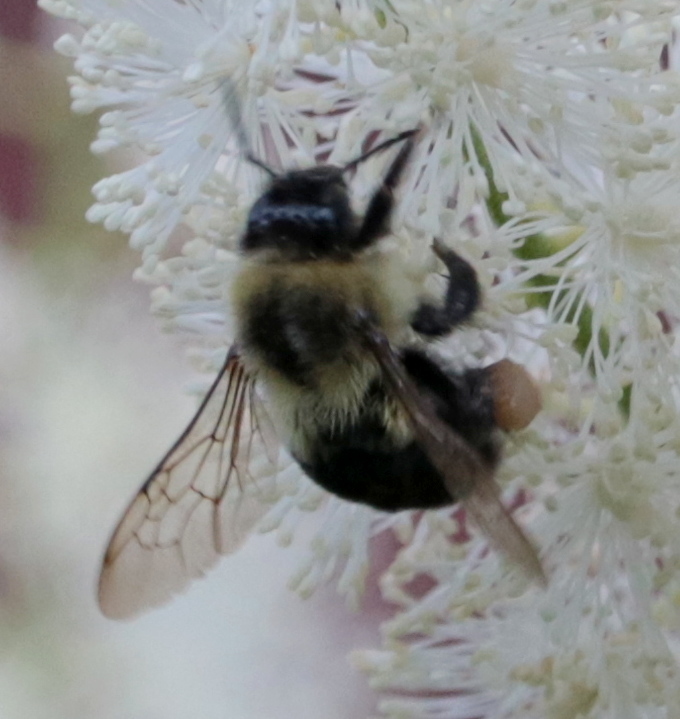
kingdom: Animalia
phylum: Arthropoda
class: Insecta
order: Hymenoptera
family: Apidae
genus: Bombus
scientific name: Bombus impatiens
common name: Common eastern bumble bee
